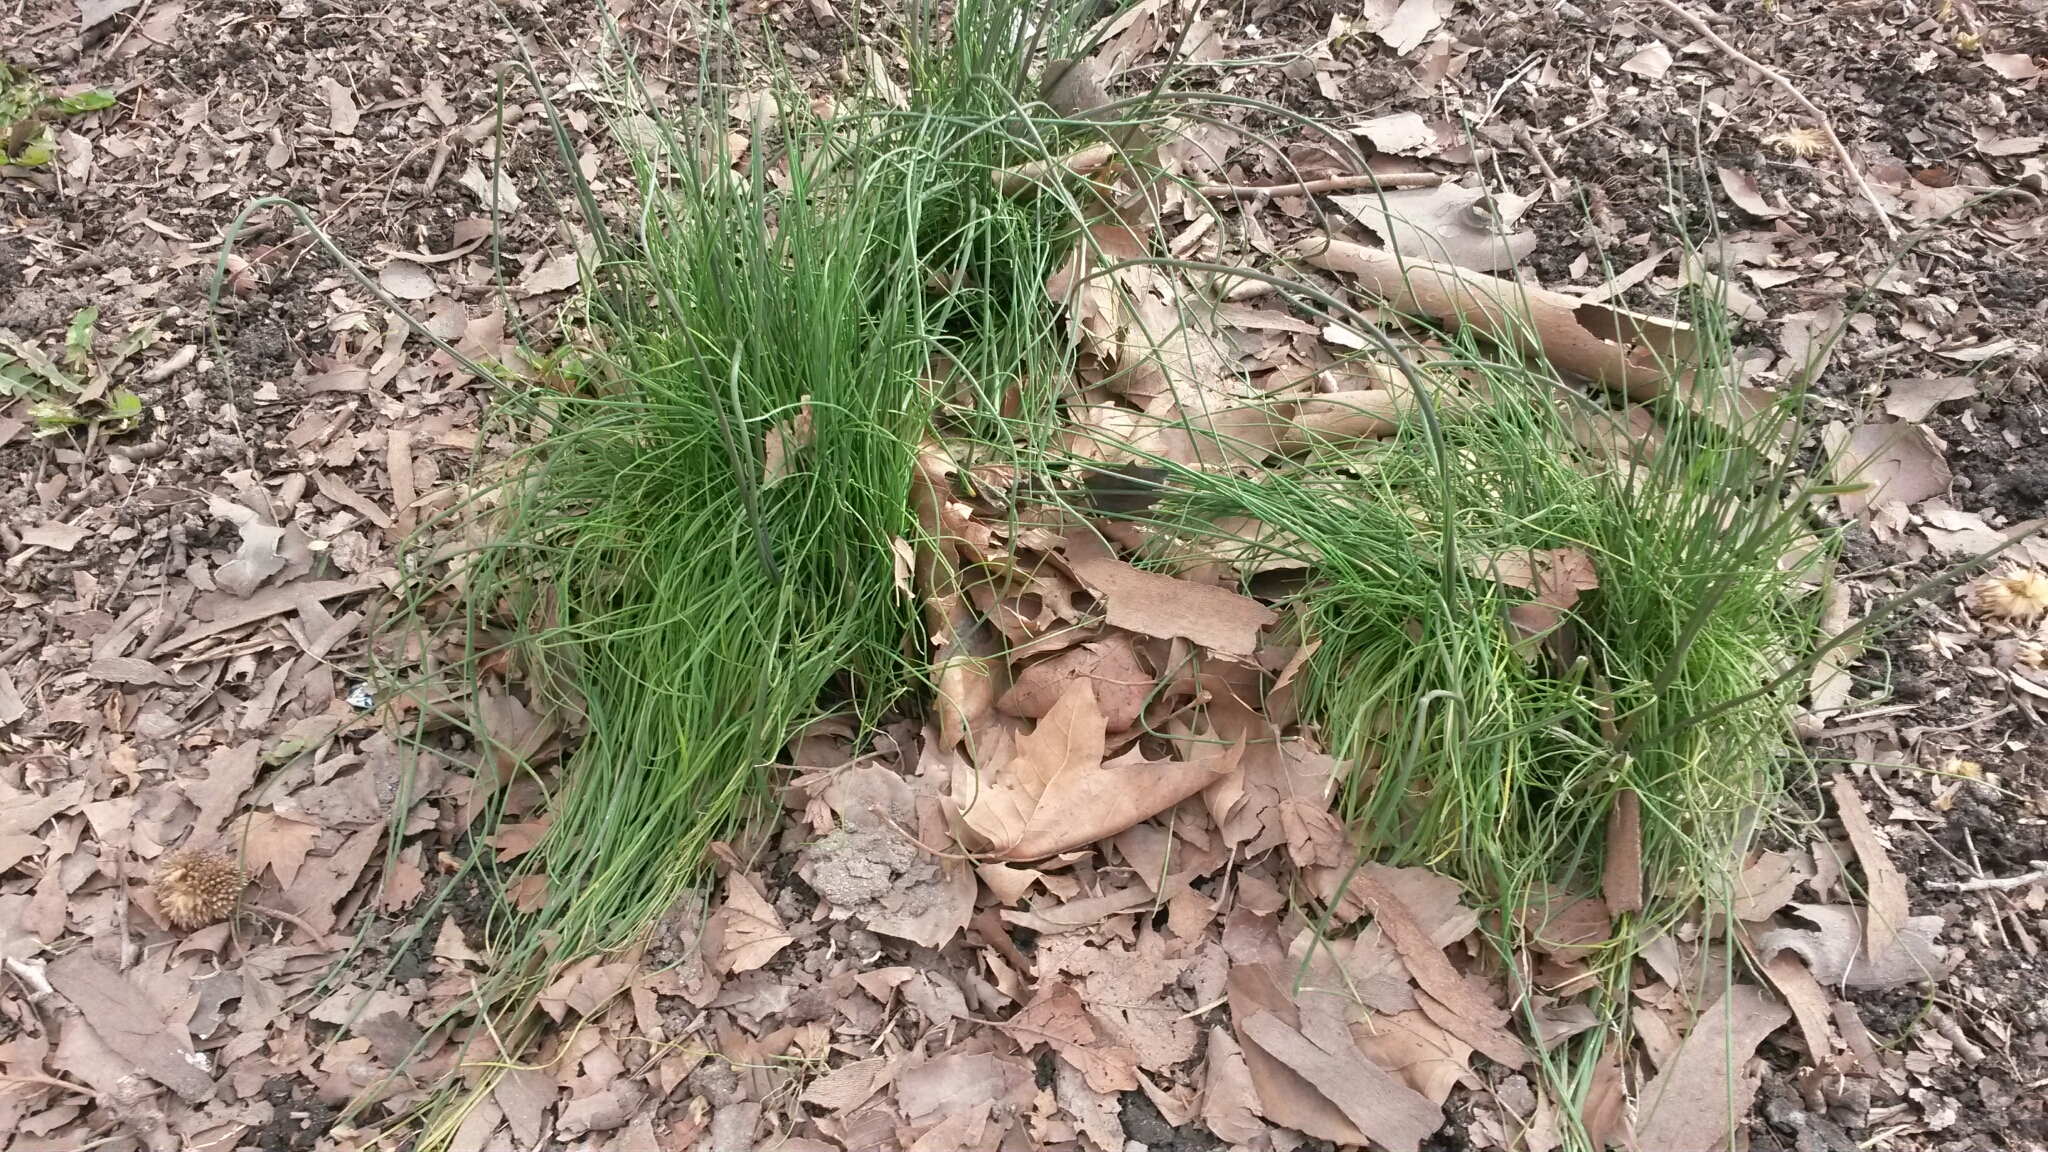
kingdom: Plantae
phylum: Tracheophyta
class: Liliopsida
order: Asparagales
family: Amaryllidaceae
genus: Allium
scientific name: Allium vineale
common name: Crow garlic
